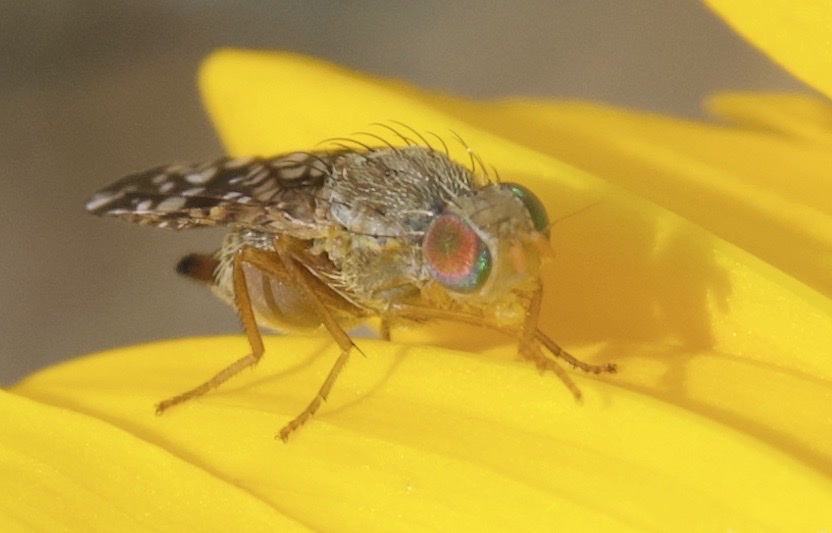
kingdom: Animalia
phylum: Arthropoda
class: Insecta
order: Diptera
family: Tephritidae
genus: Neotephritis
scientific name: Neotephritis finalis
